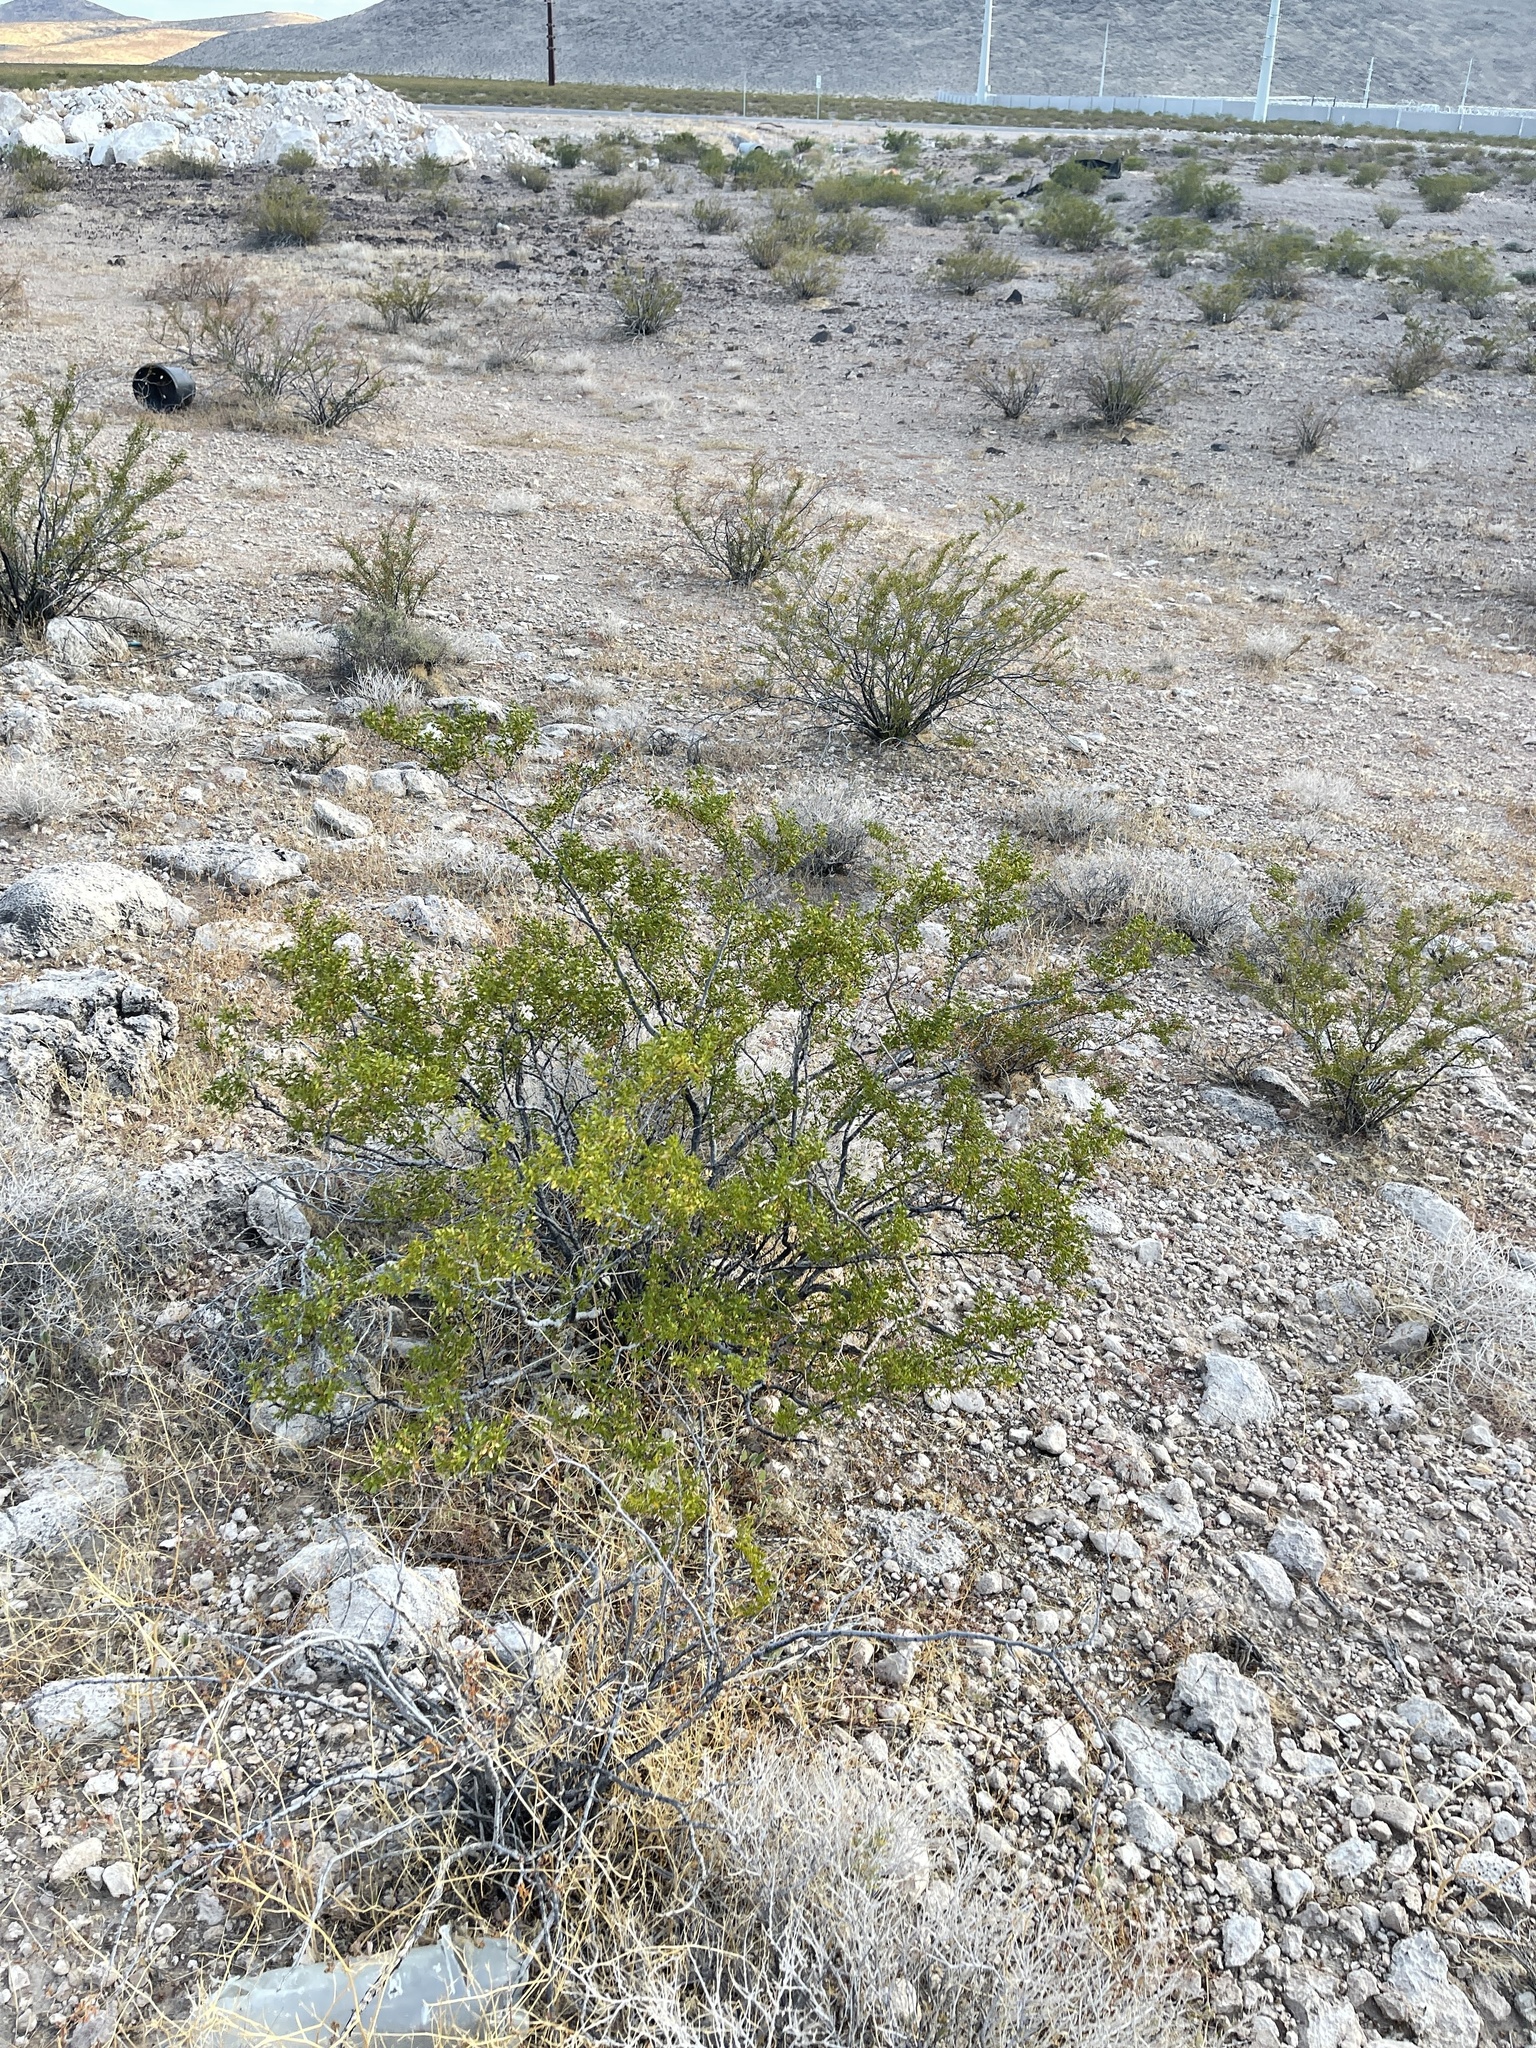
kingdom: Plantae
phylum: Tracheophyta
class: Magnoliopsida
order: Zygophyllales
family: Zygophyllaceae
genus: Larrea
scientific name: Larrea tridentata
